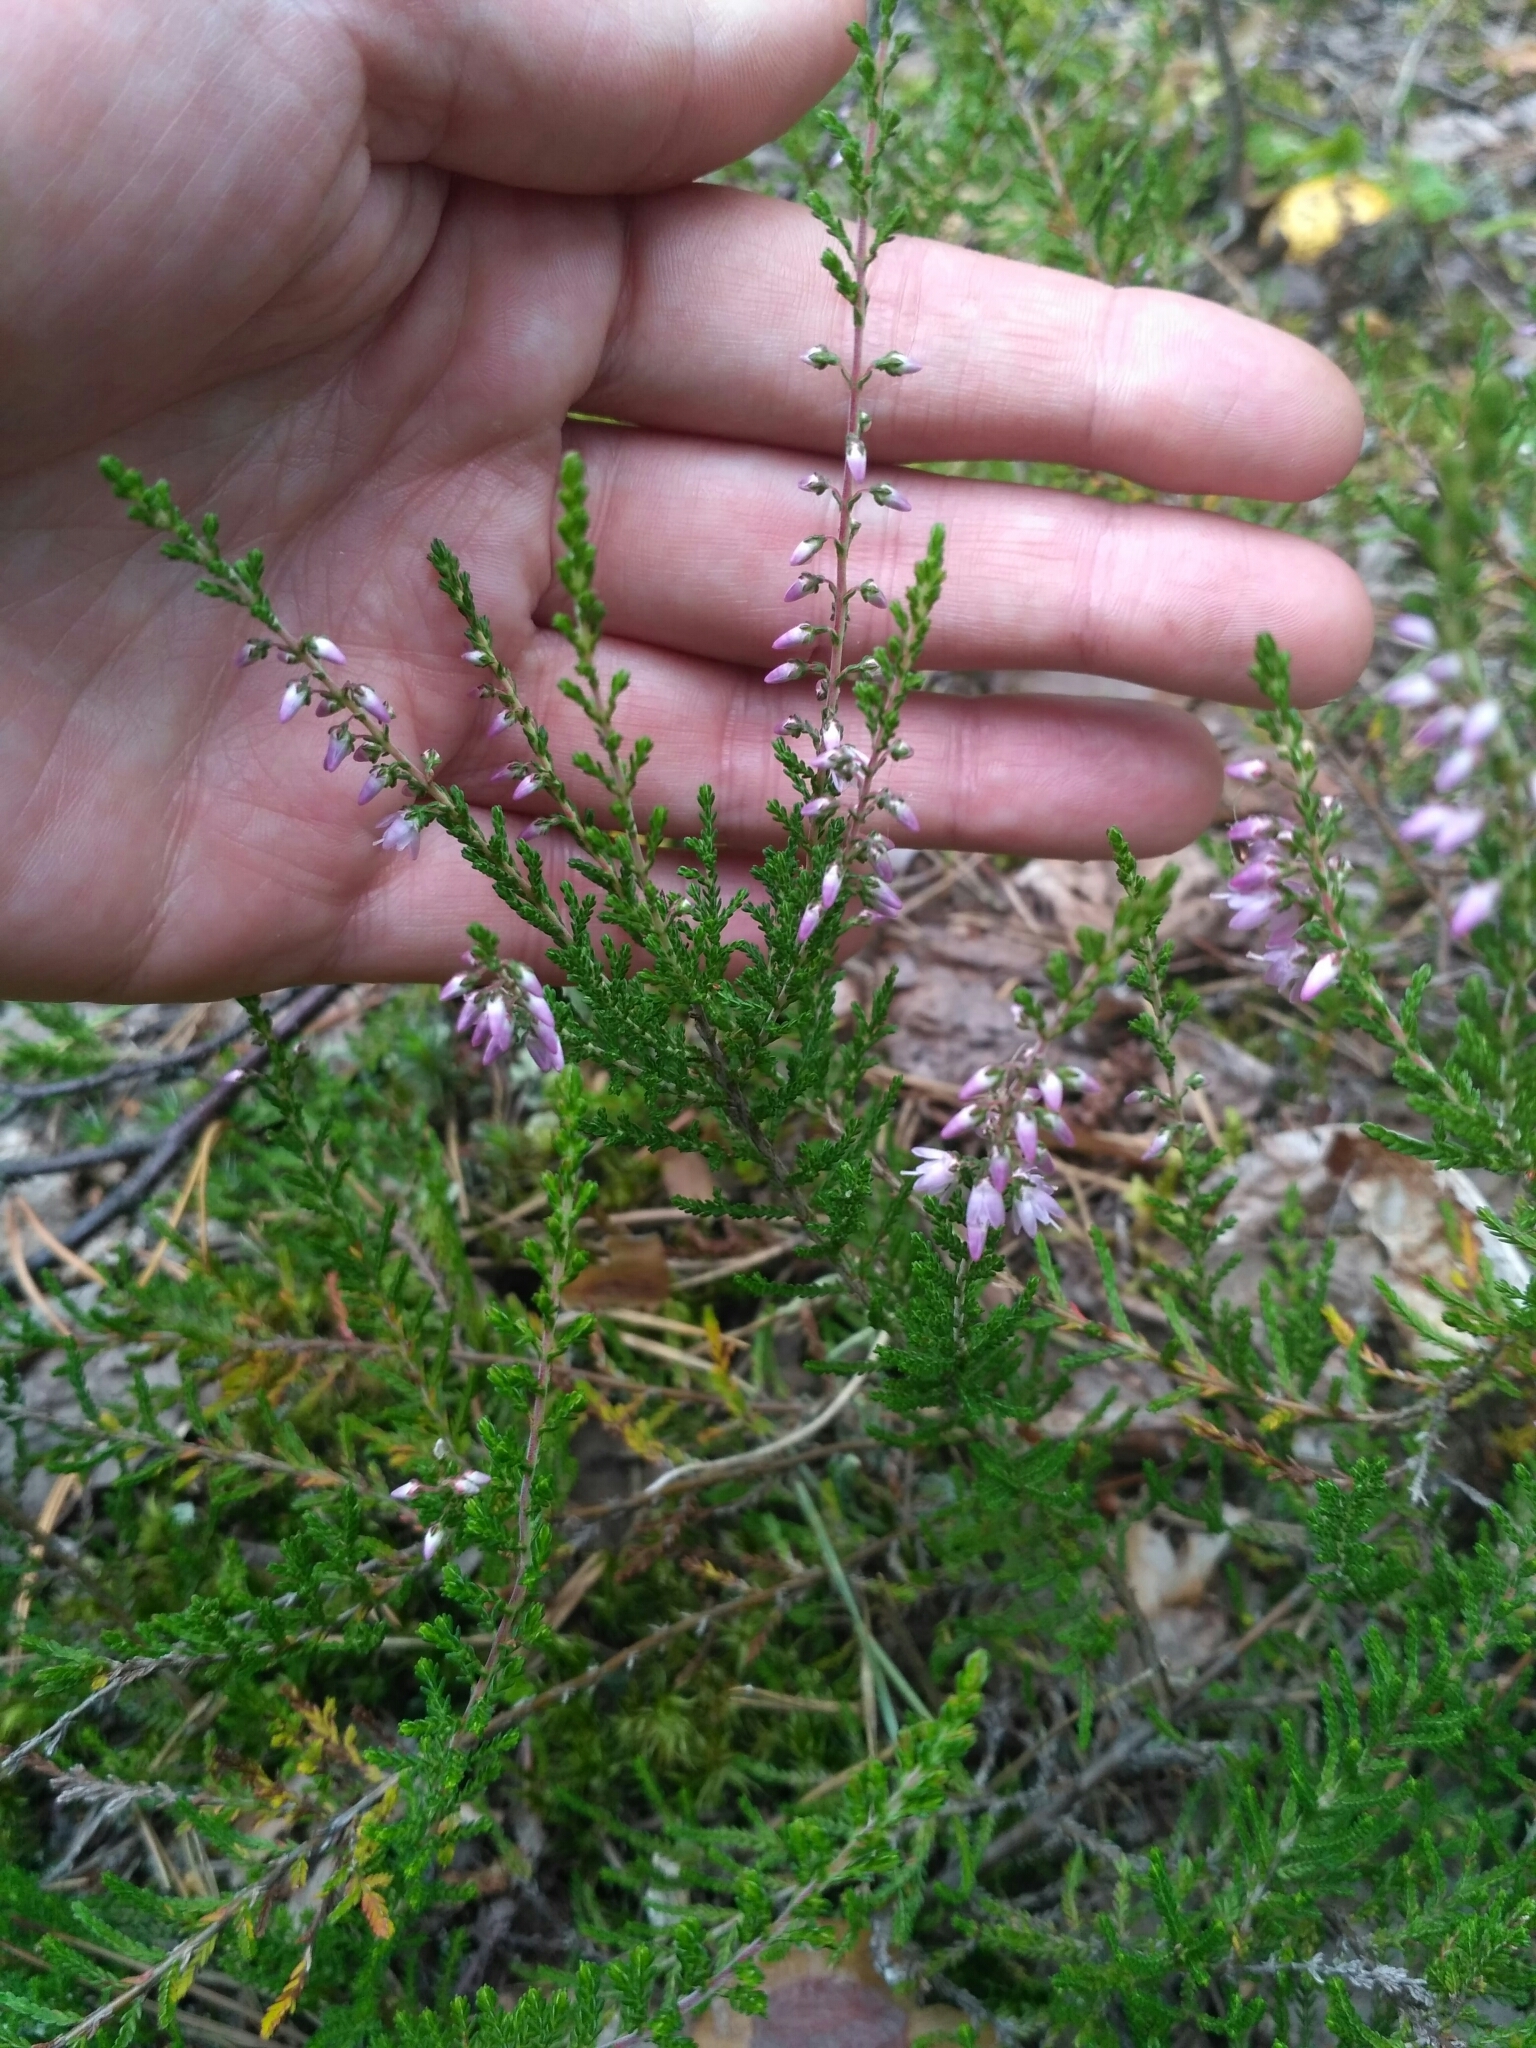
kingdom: Plantae
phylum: Tracheophyta
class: Magnoliopsida
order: Ericales
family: Ericaceae
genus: Calluna
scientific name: Calluna vulgaris
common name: Heather
